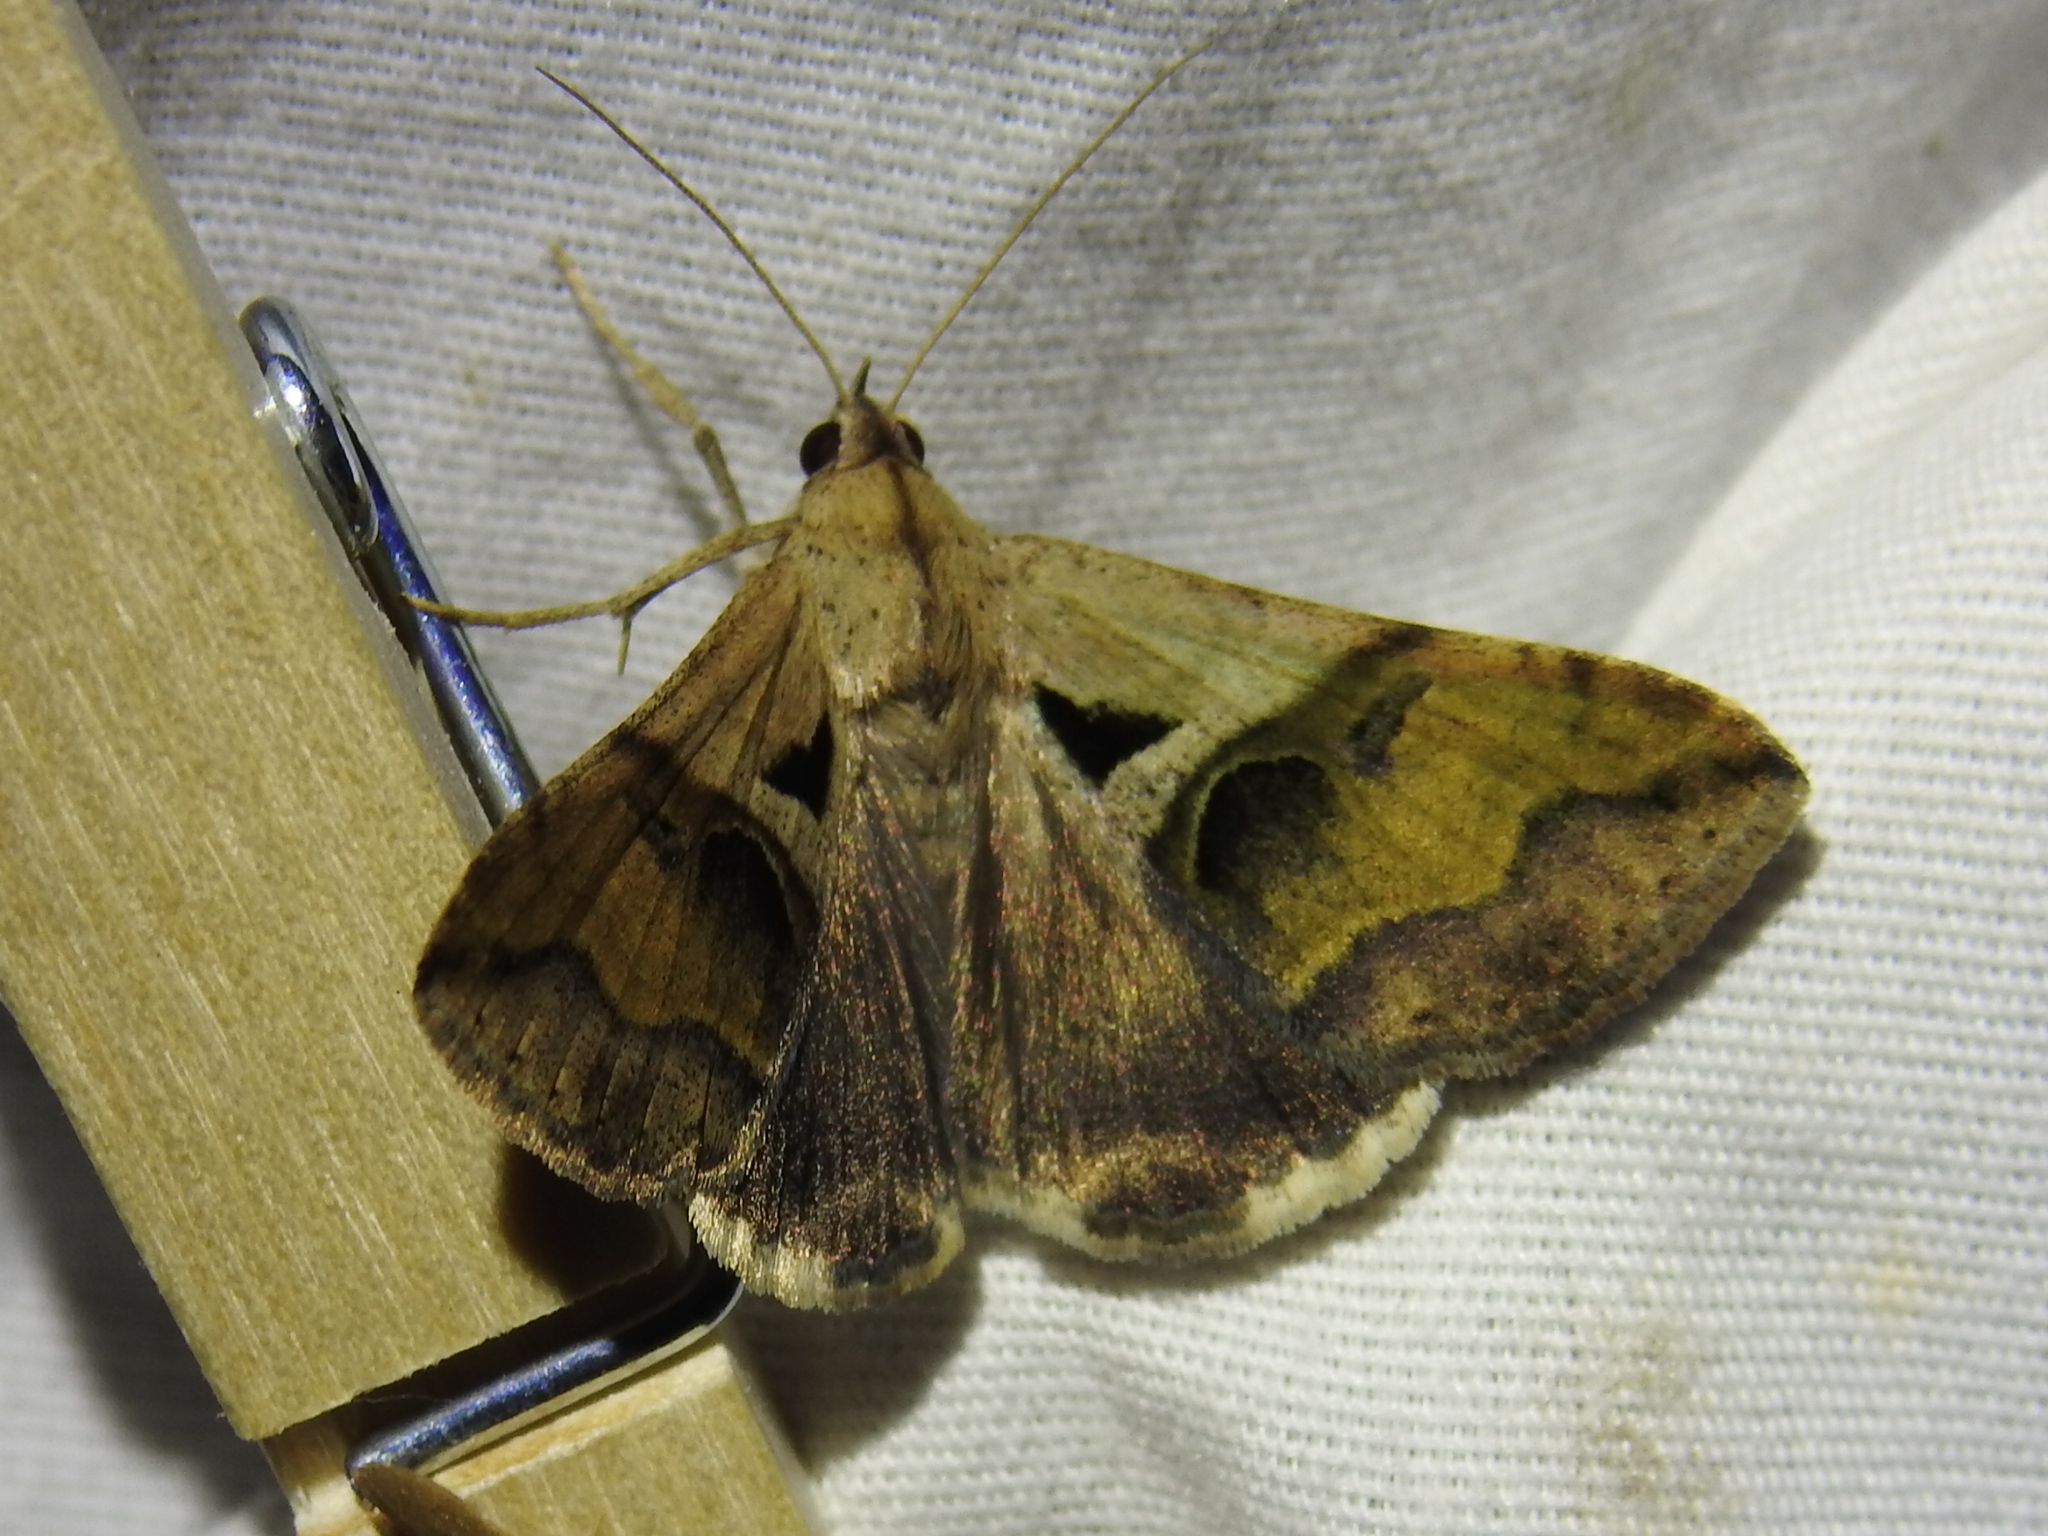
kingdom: Animalia
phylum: Arthropoda
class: Insecta
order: Lepidoptera
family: Erebidae
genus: Melipotis
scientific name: Melipotis cellaris
